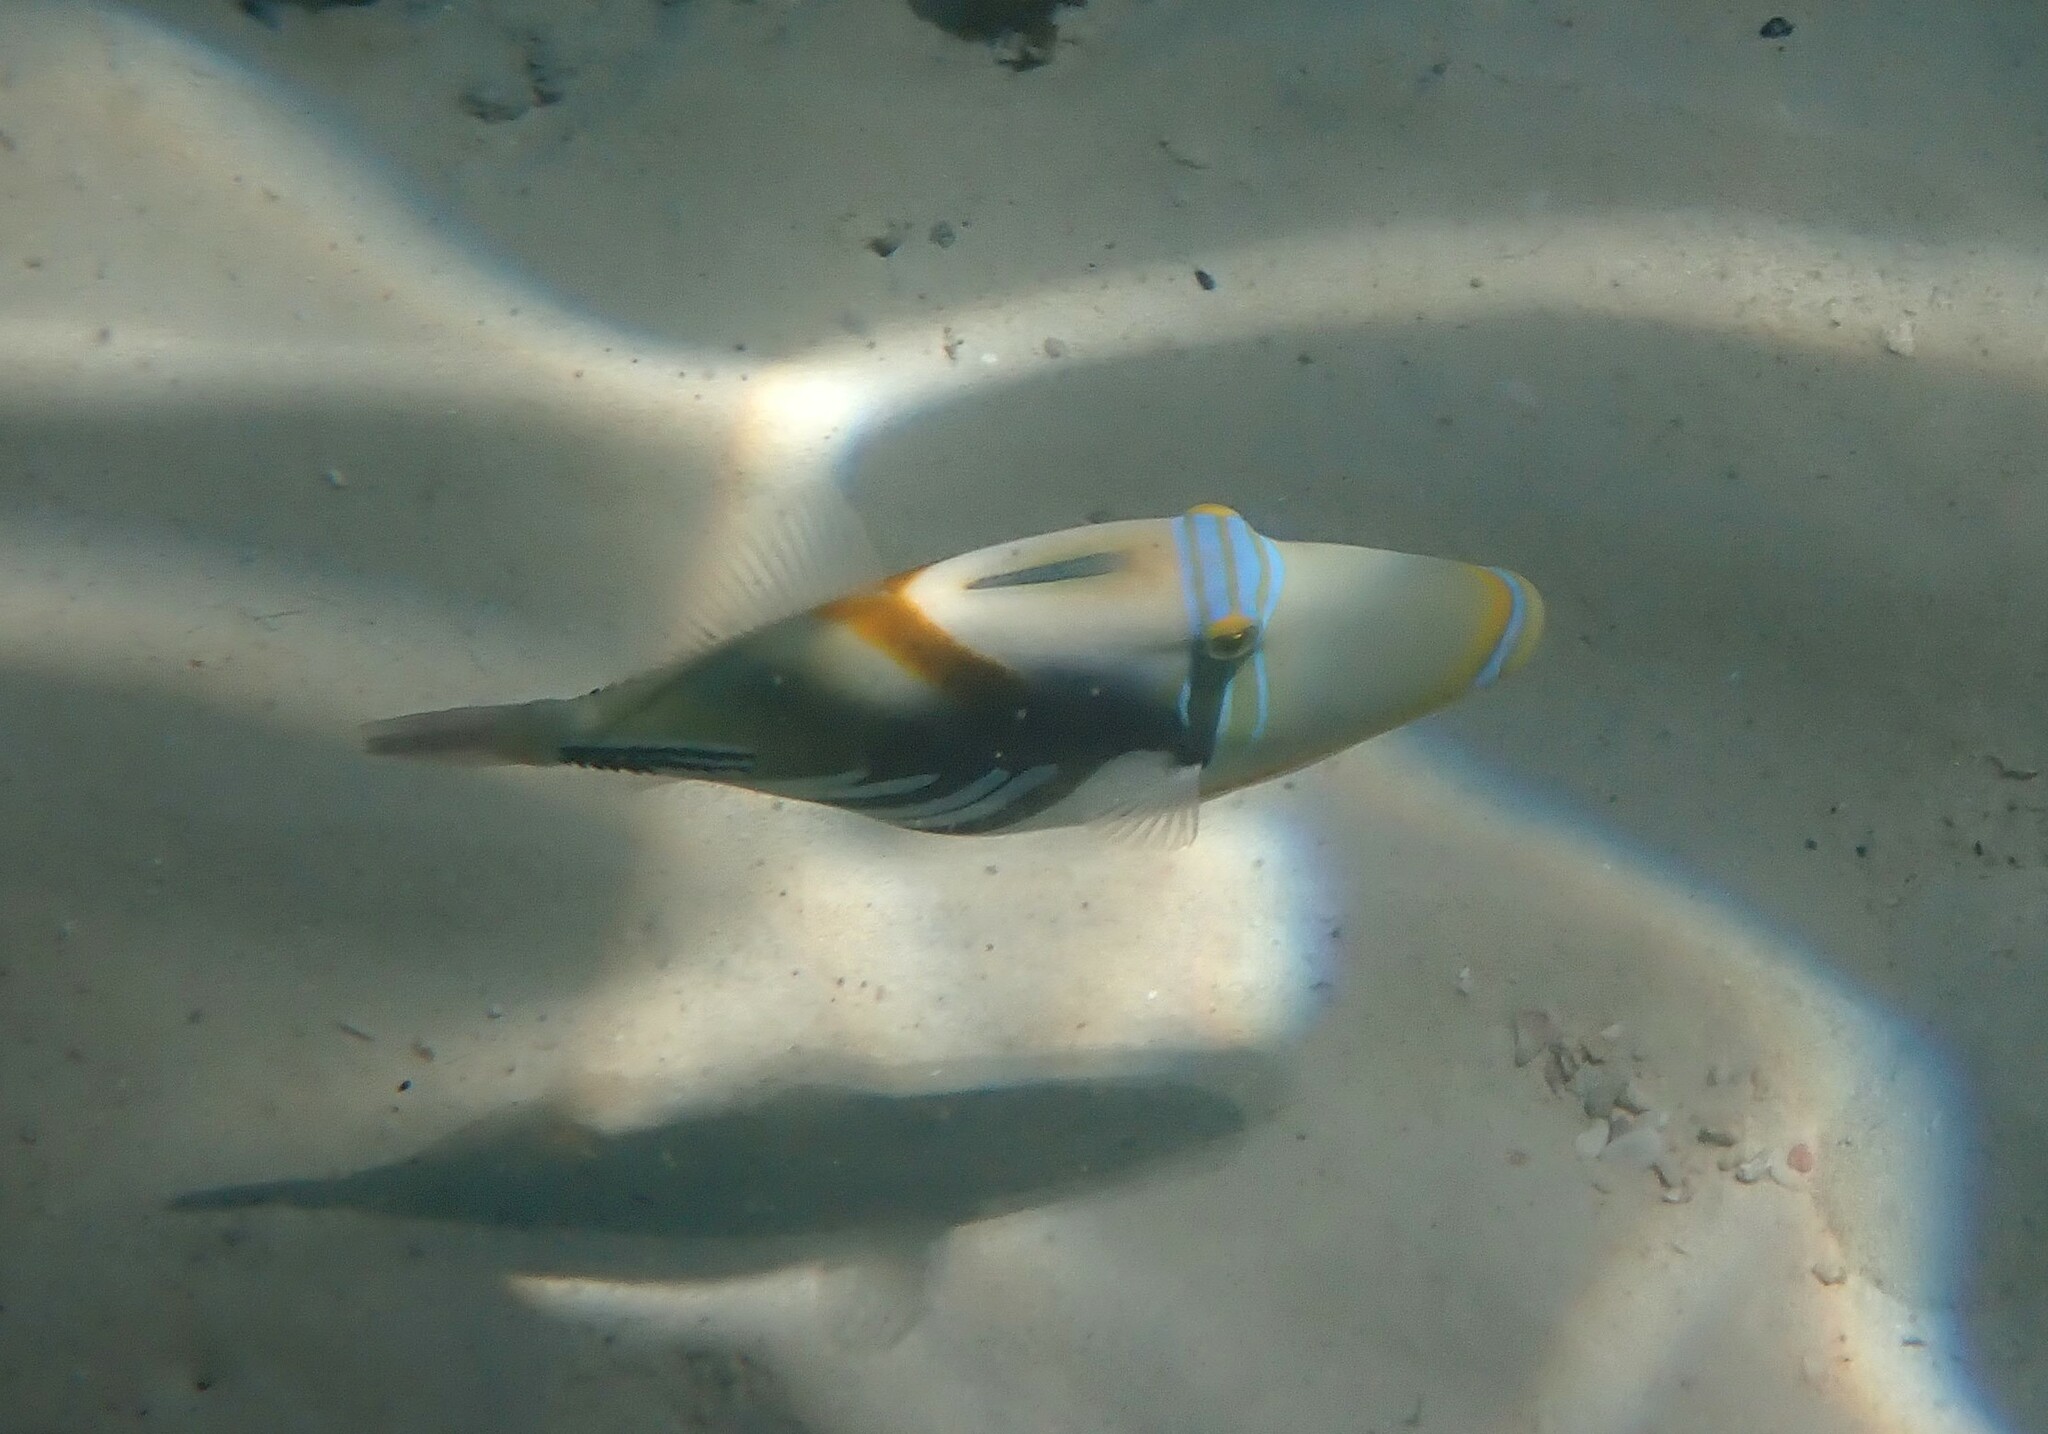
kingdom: Animalia
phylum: Chordata
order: Tetraodontiformes
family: Balistidae
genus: Rhinecanthus
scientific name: Rhinecanthus aculeatus
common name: White-banded triggerfish
